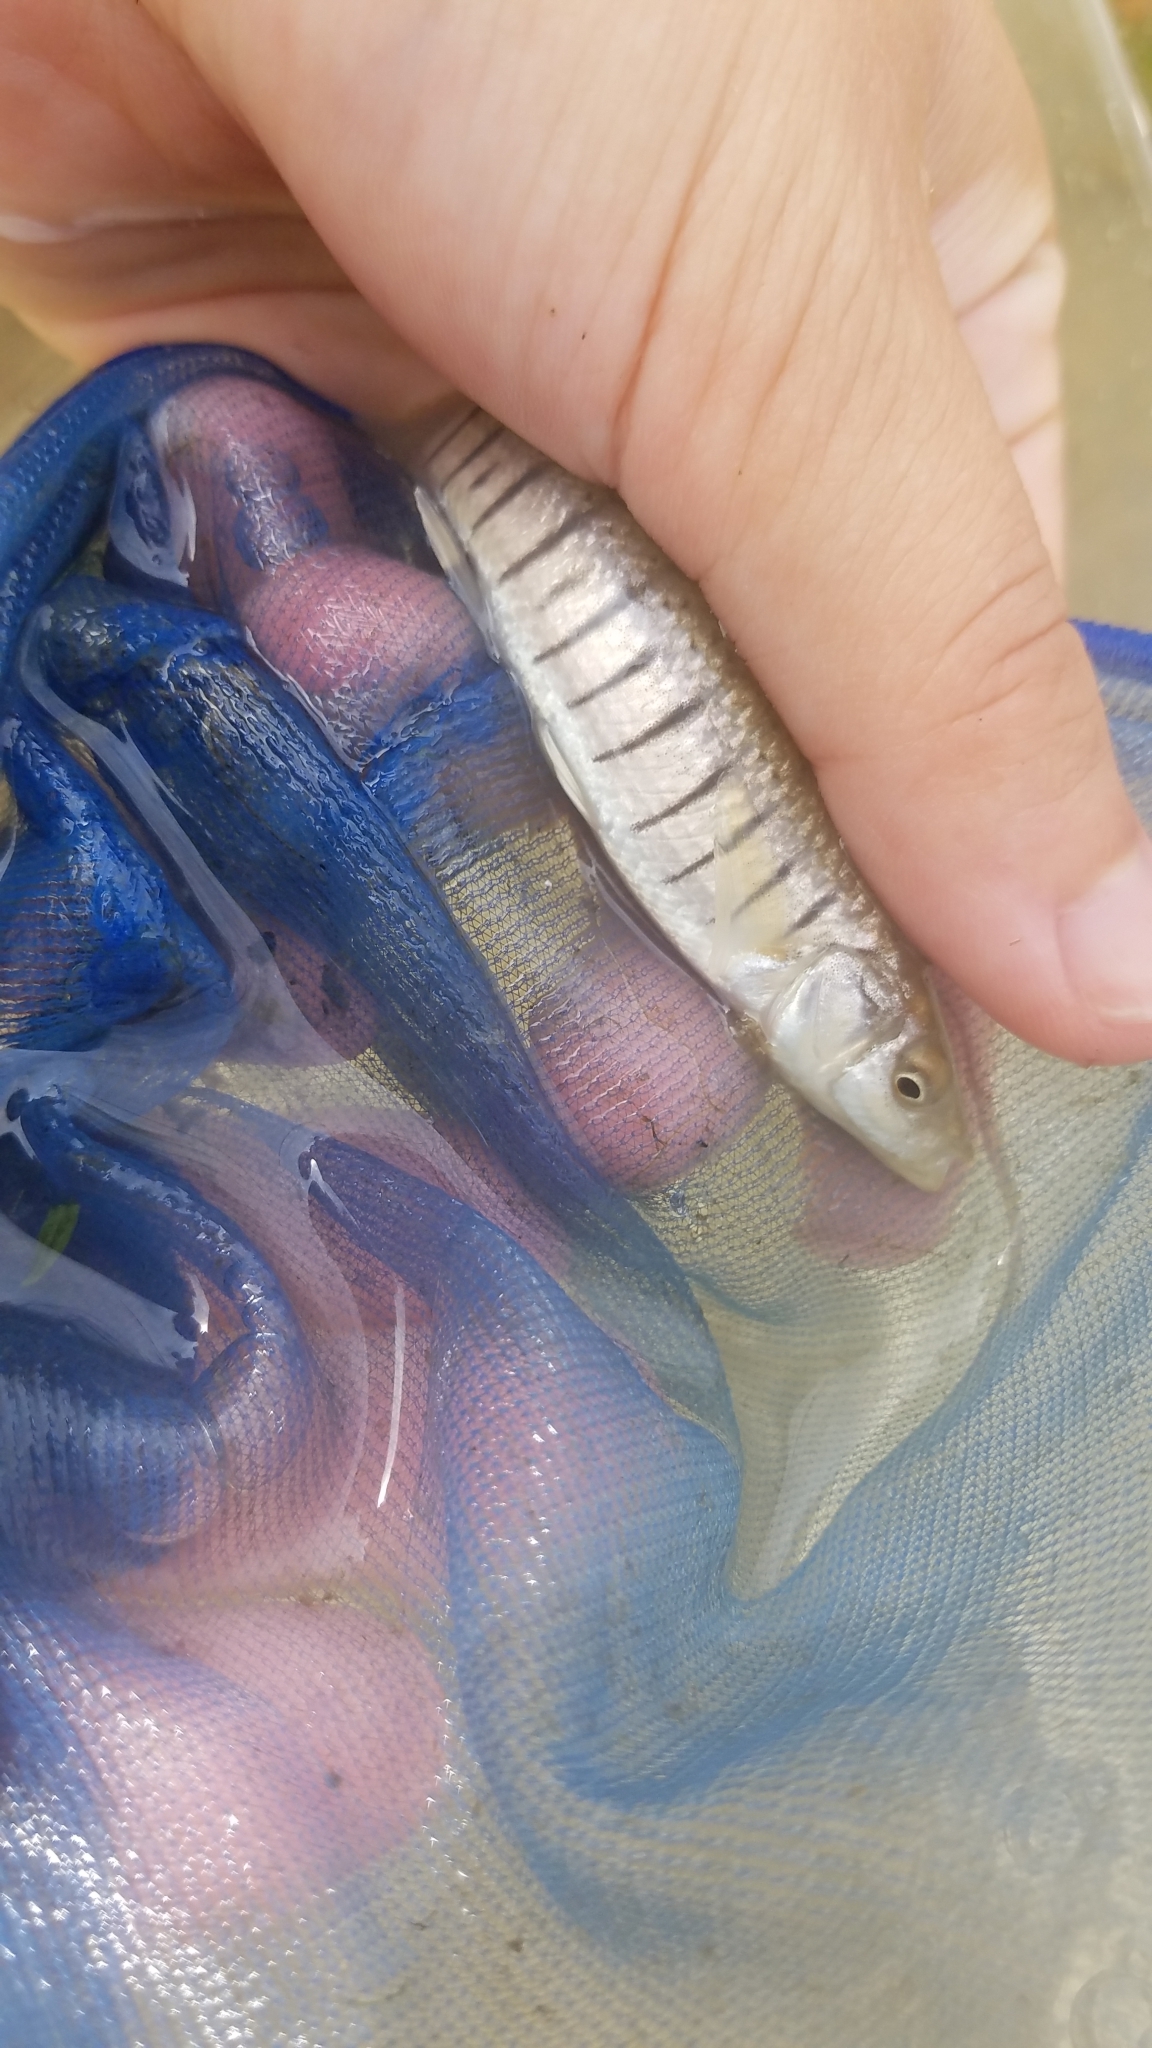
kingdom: Animalia
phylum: Chordata
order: Cyprinodontiformes
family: Fundulidae
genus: Fundulus
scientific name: Fundulus majalis
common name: Striped killifish
